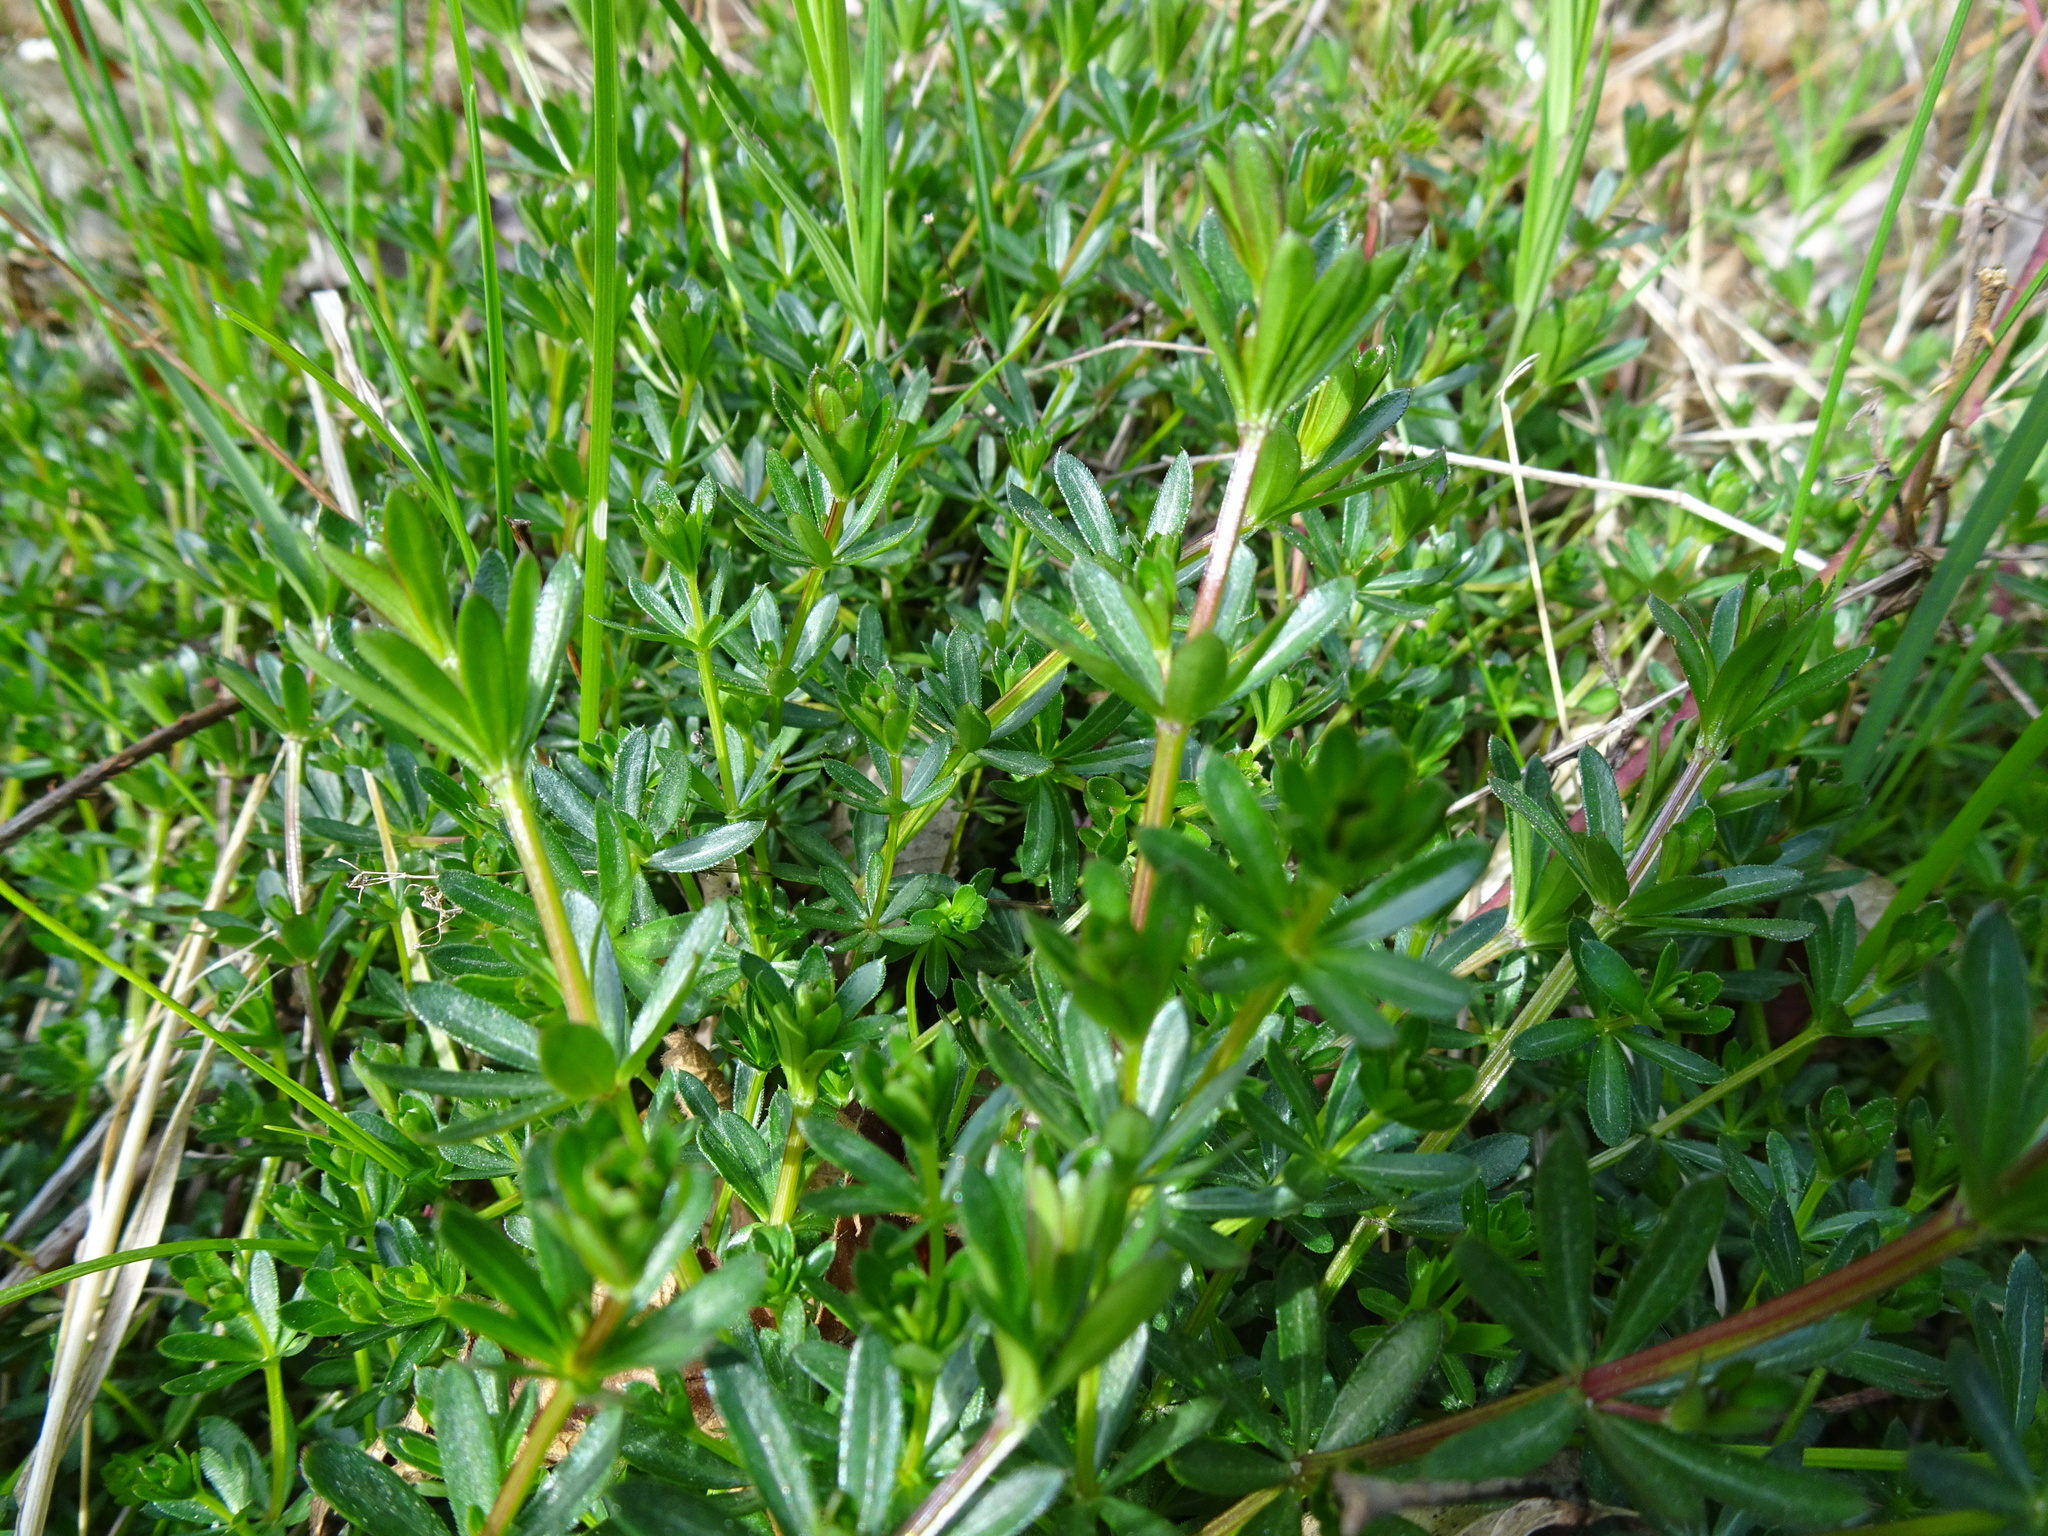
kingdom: Plantae
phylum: Tracheophyta
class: Magnoliopsida
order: Gentianales
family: Rubiaceae
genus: Galium
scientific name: Galium album
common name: White bedstraw
